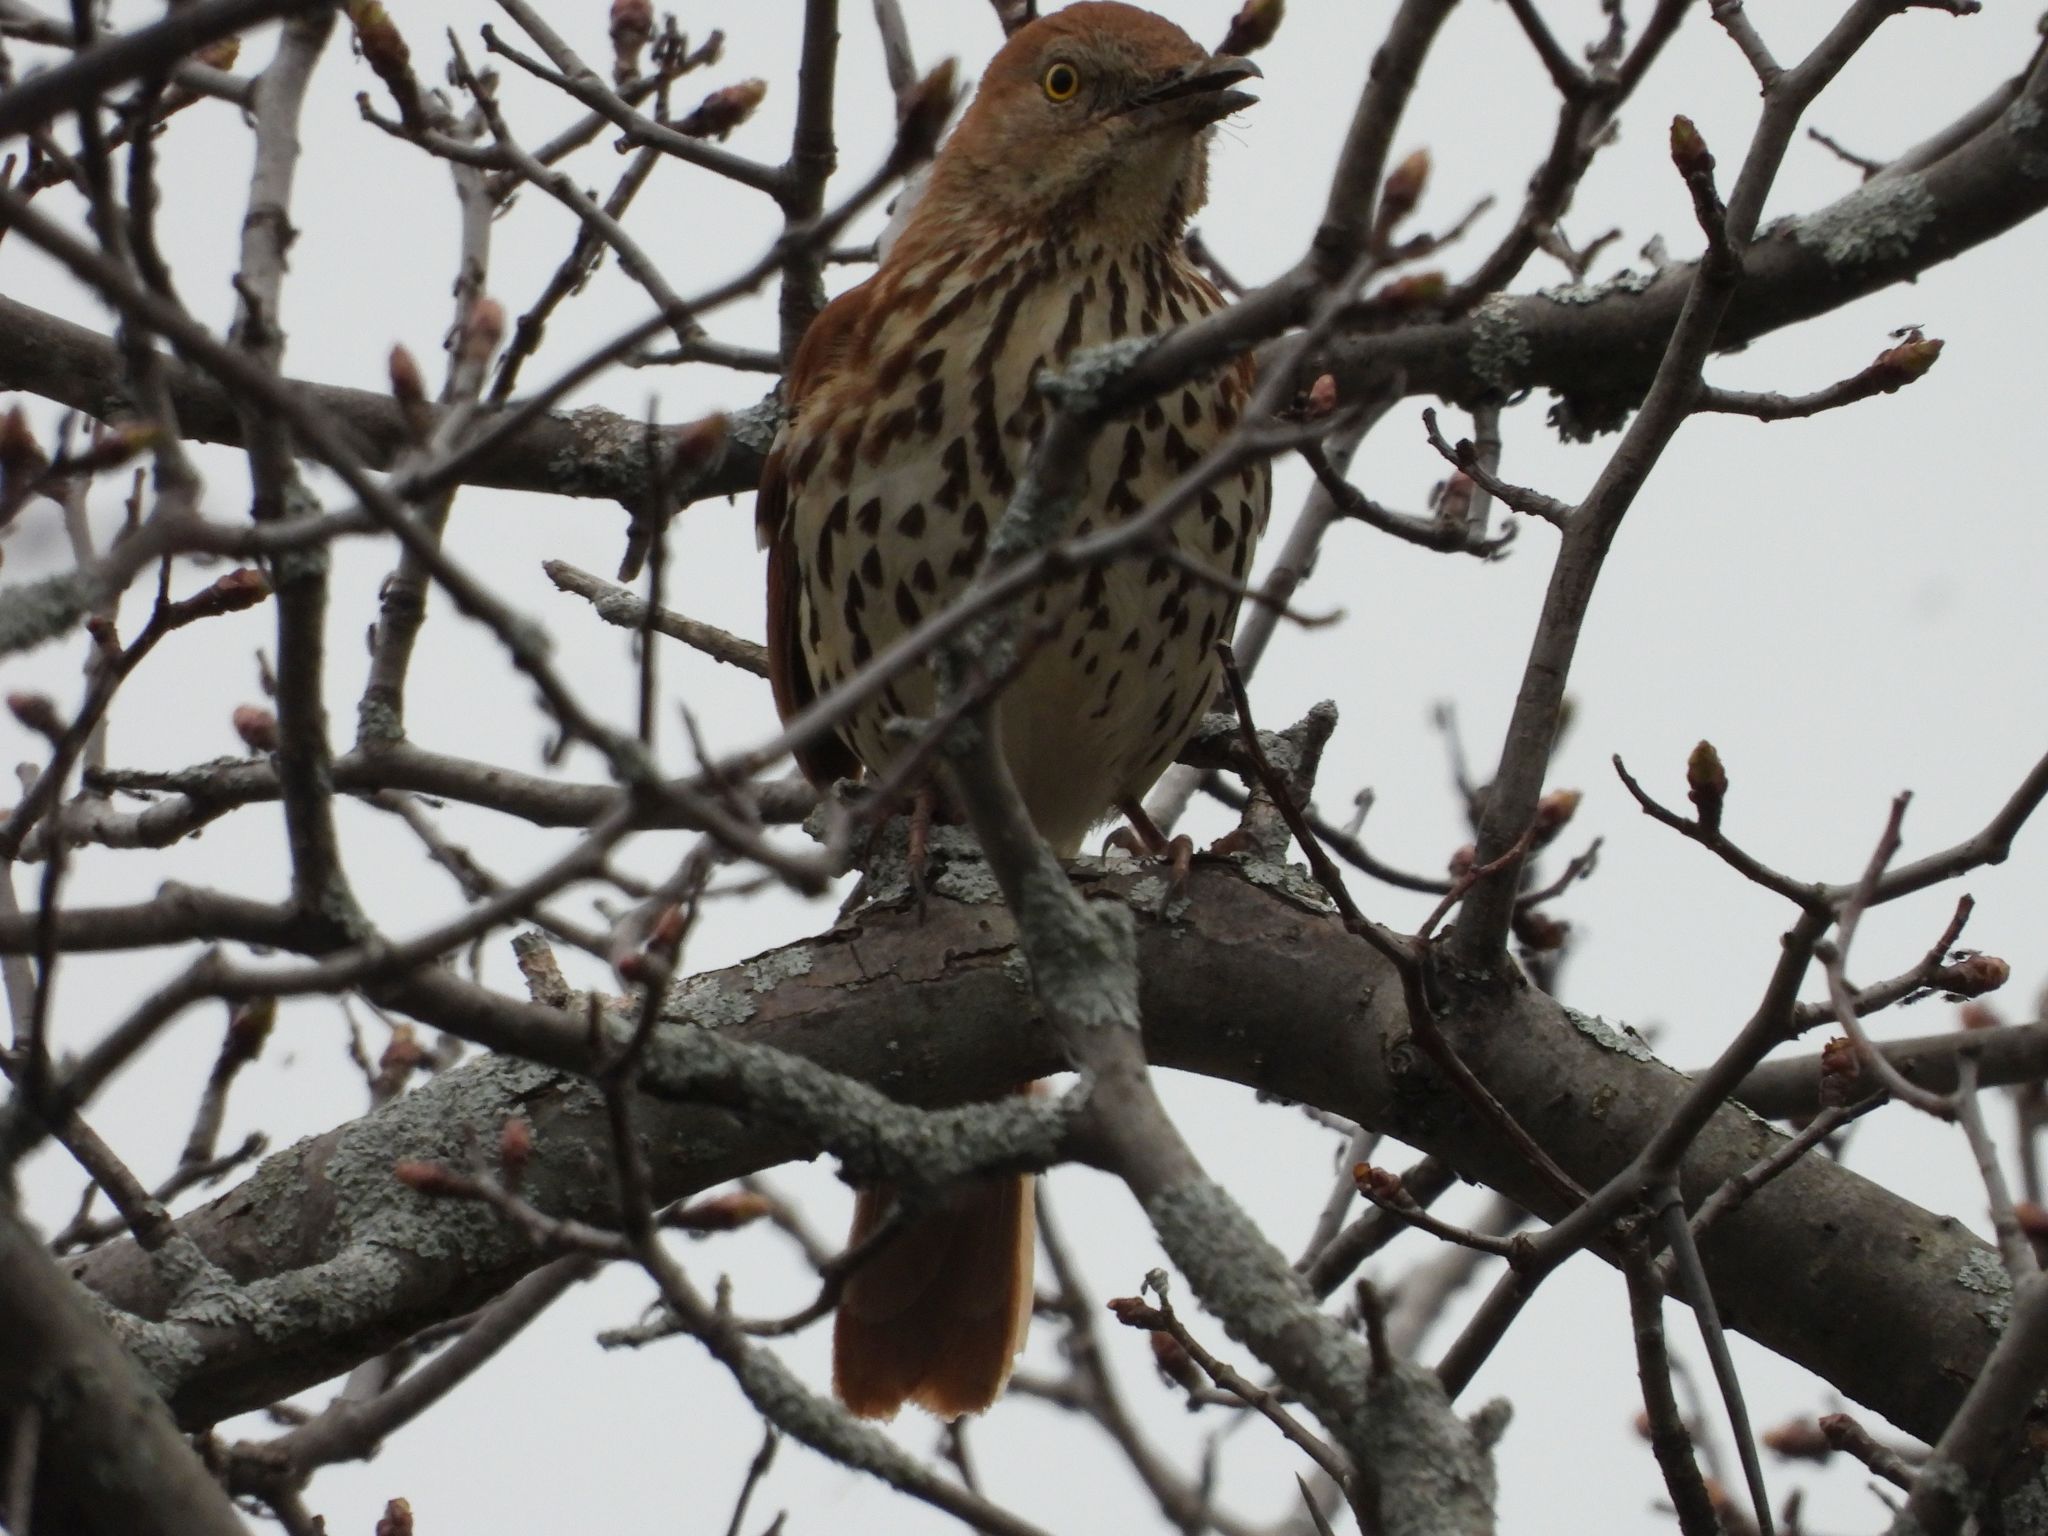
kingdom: Animalia
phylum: Chordata
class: Aves
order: Passeriformes
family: Mimidae
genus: Toxostoma
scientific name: Toxostoma rufum
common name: Brown thrasher
